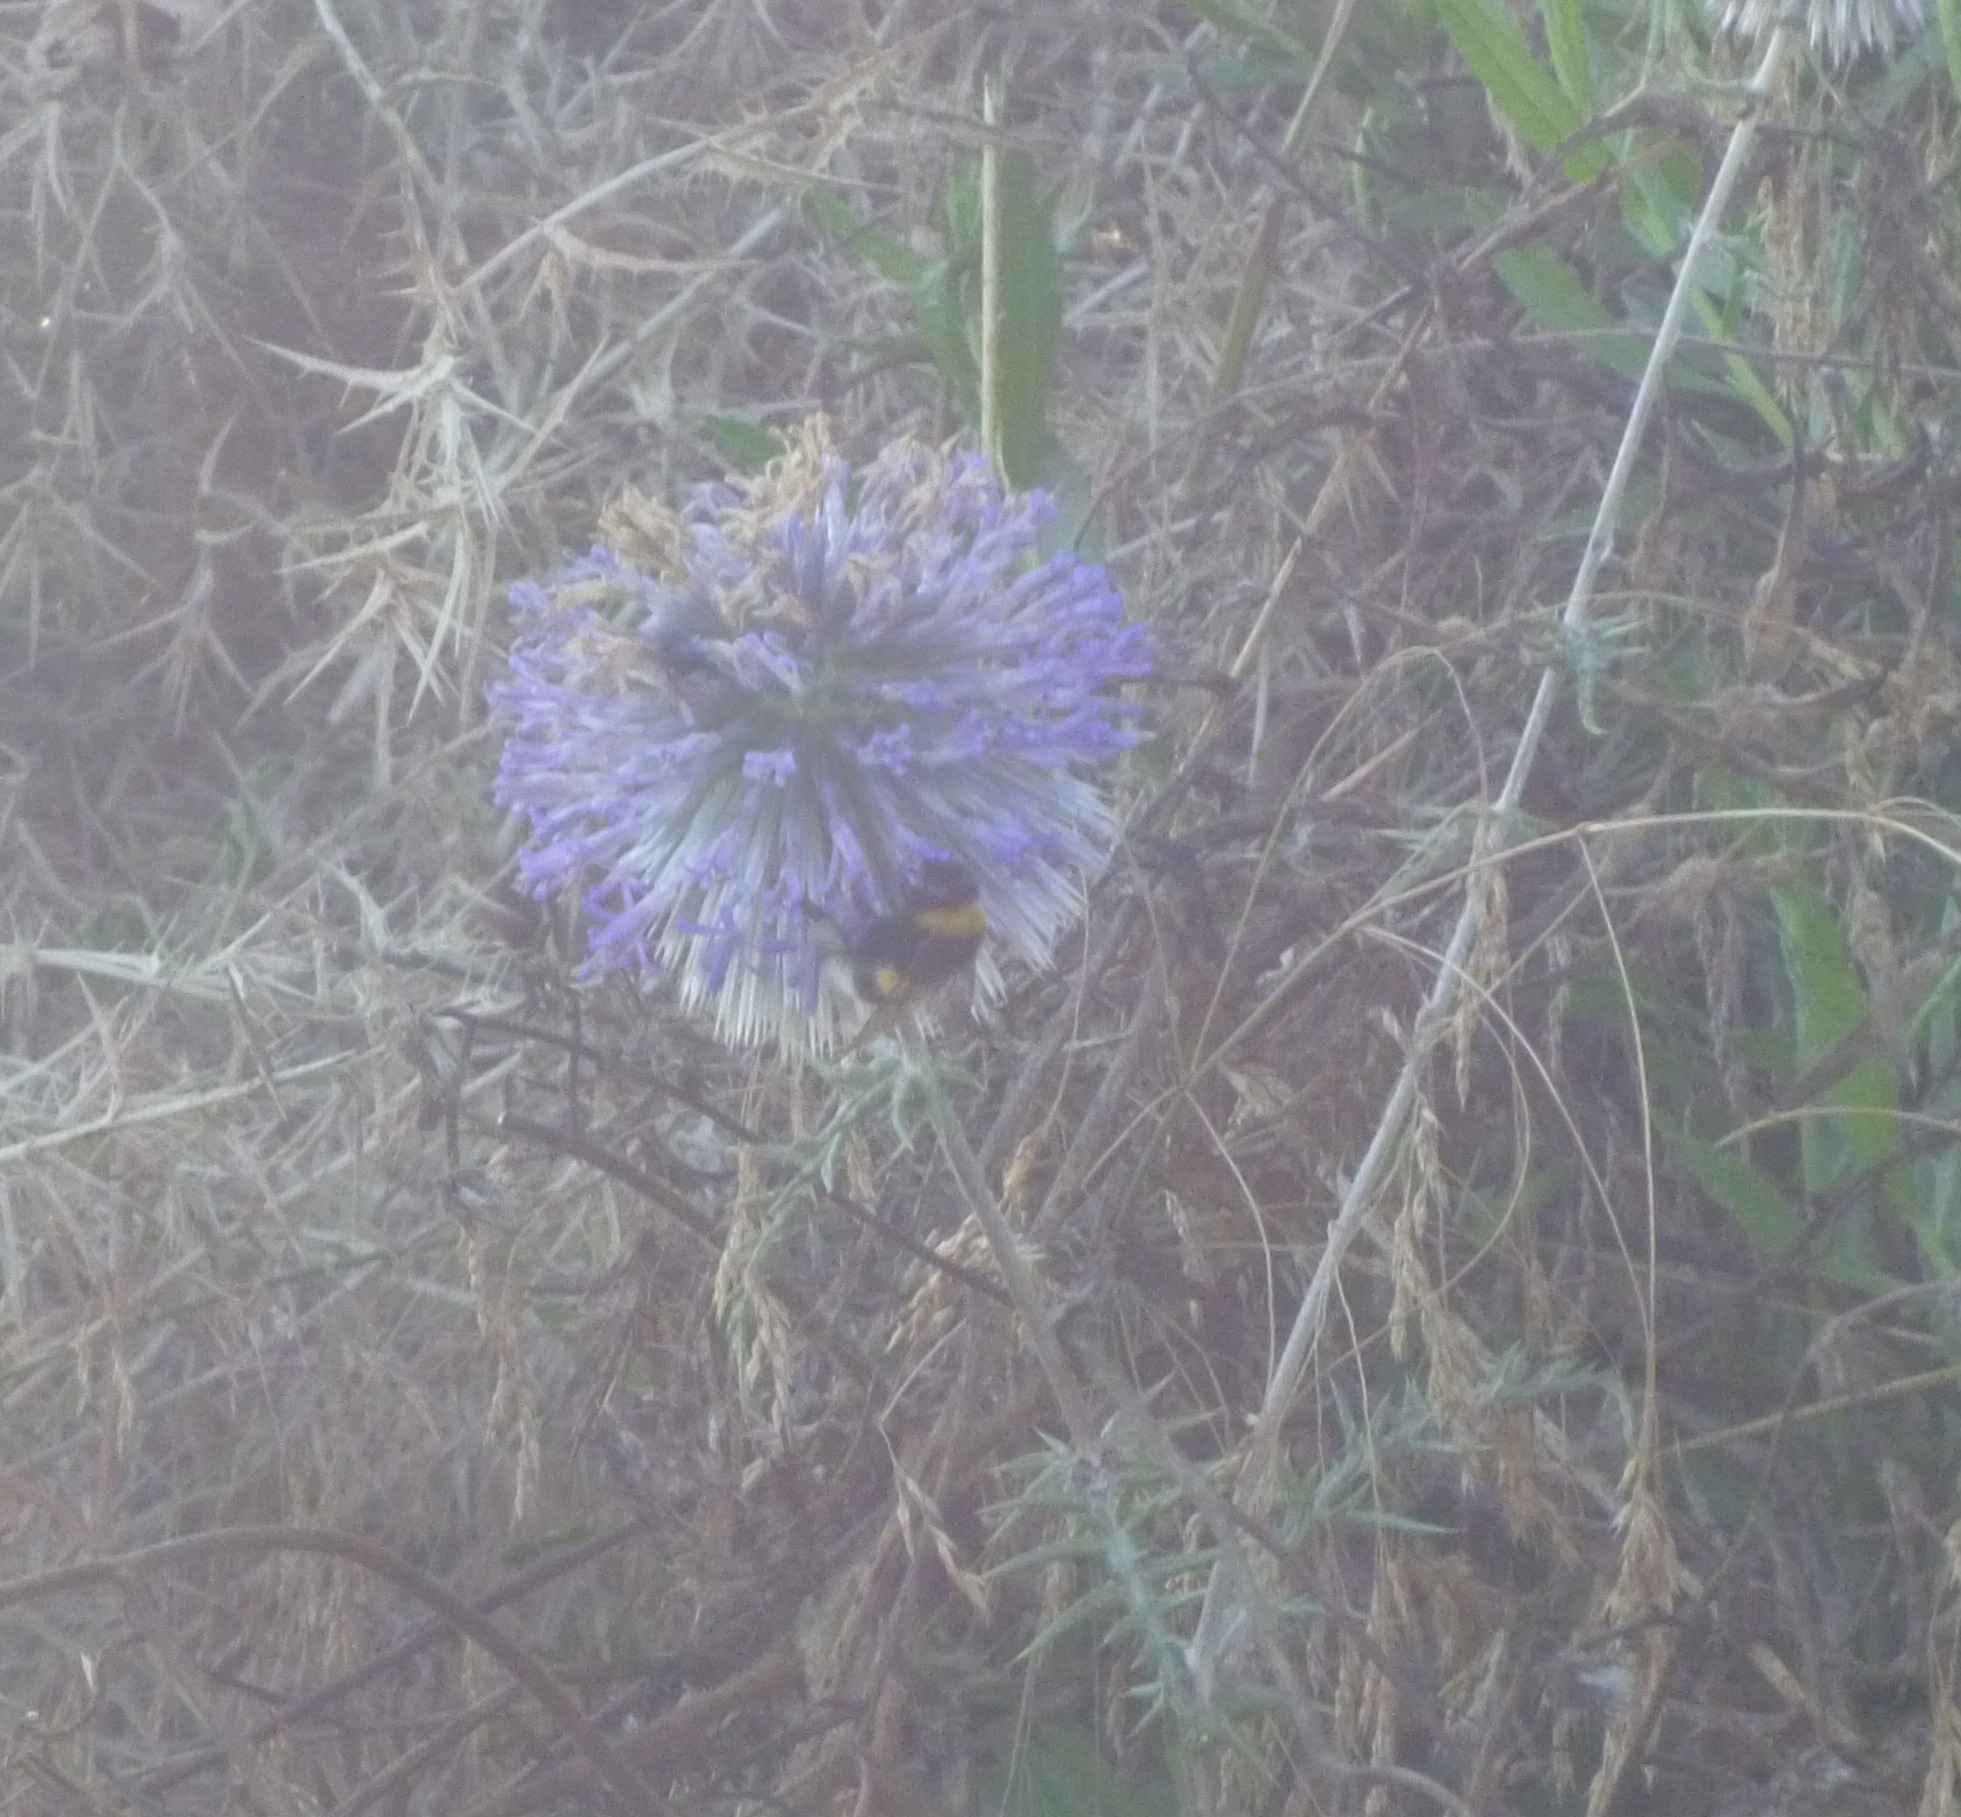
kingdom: Animalia
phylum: Arthropoda
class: Insecta
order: Hymenoptera
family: Apidae
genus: Bombus
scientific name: Bombus terrestris
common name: Buff-tailed bumblebee
